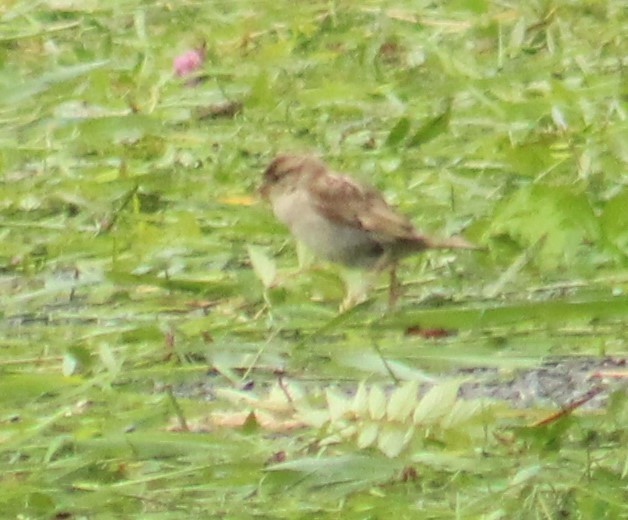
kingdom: Animalia
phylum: Chordata
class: Aves
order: Passeriformes
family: Passeridae
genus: Passer
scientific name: Passer domesticus
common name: House sparrow
